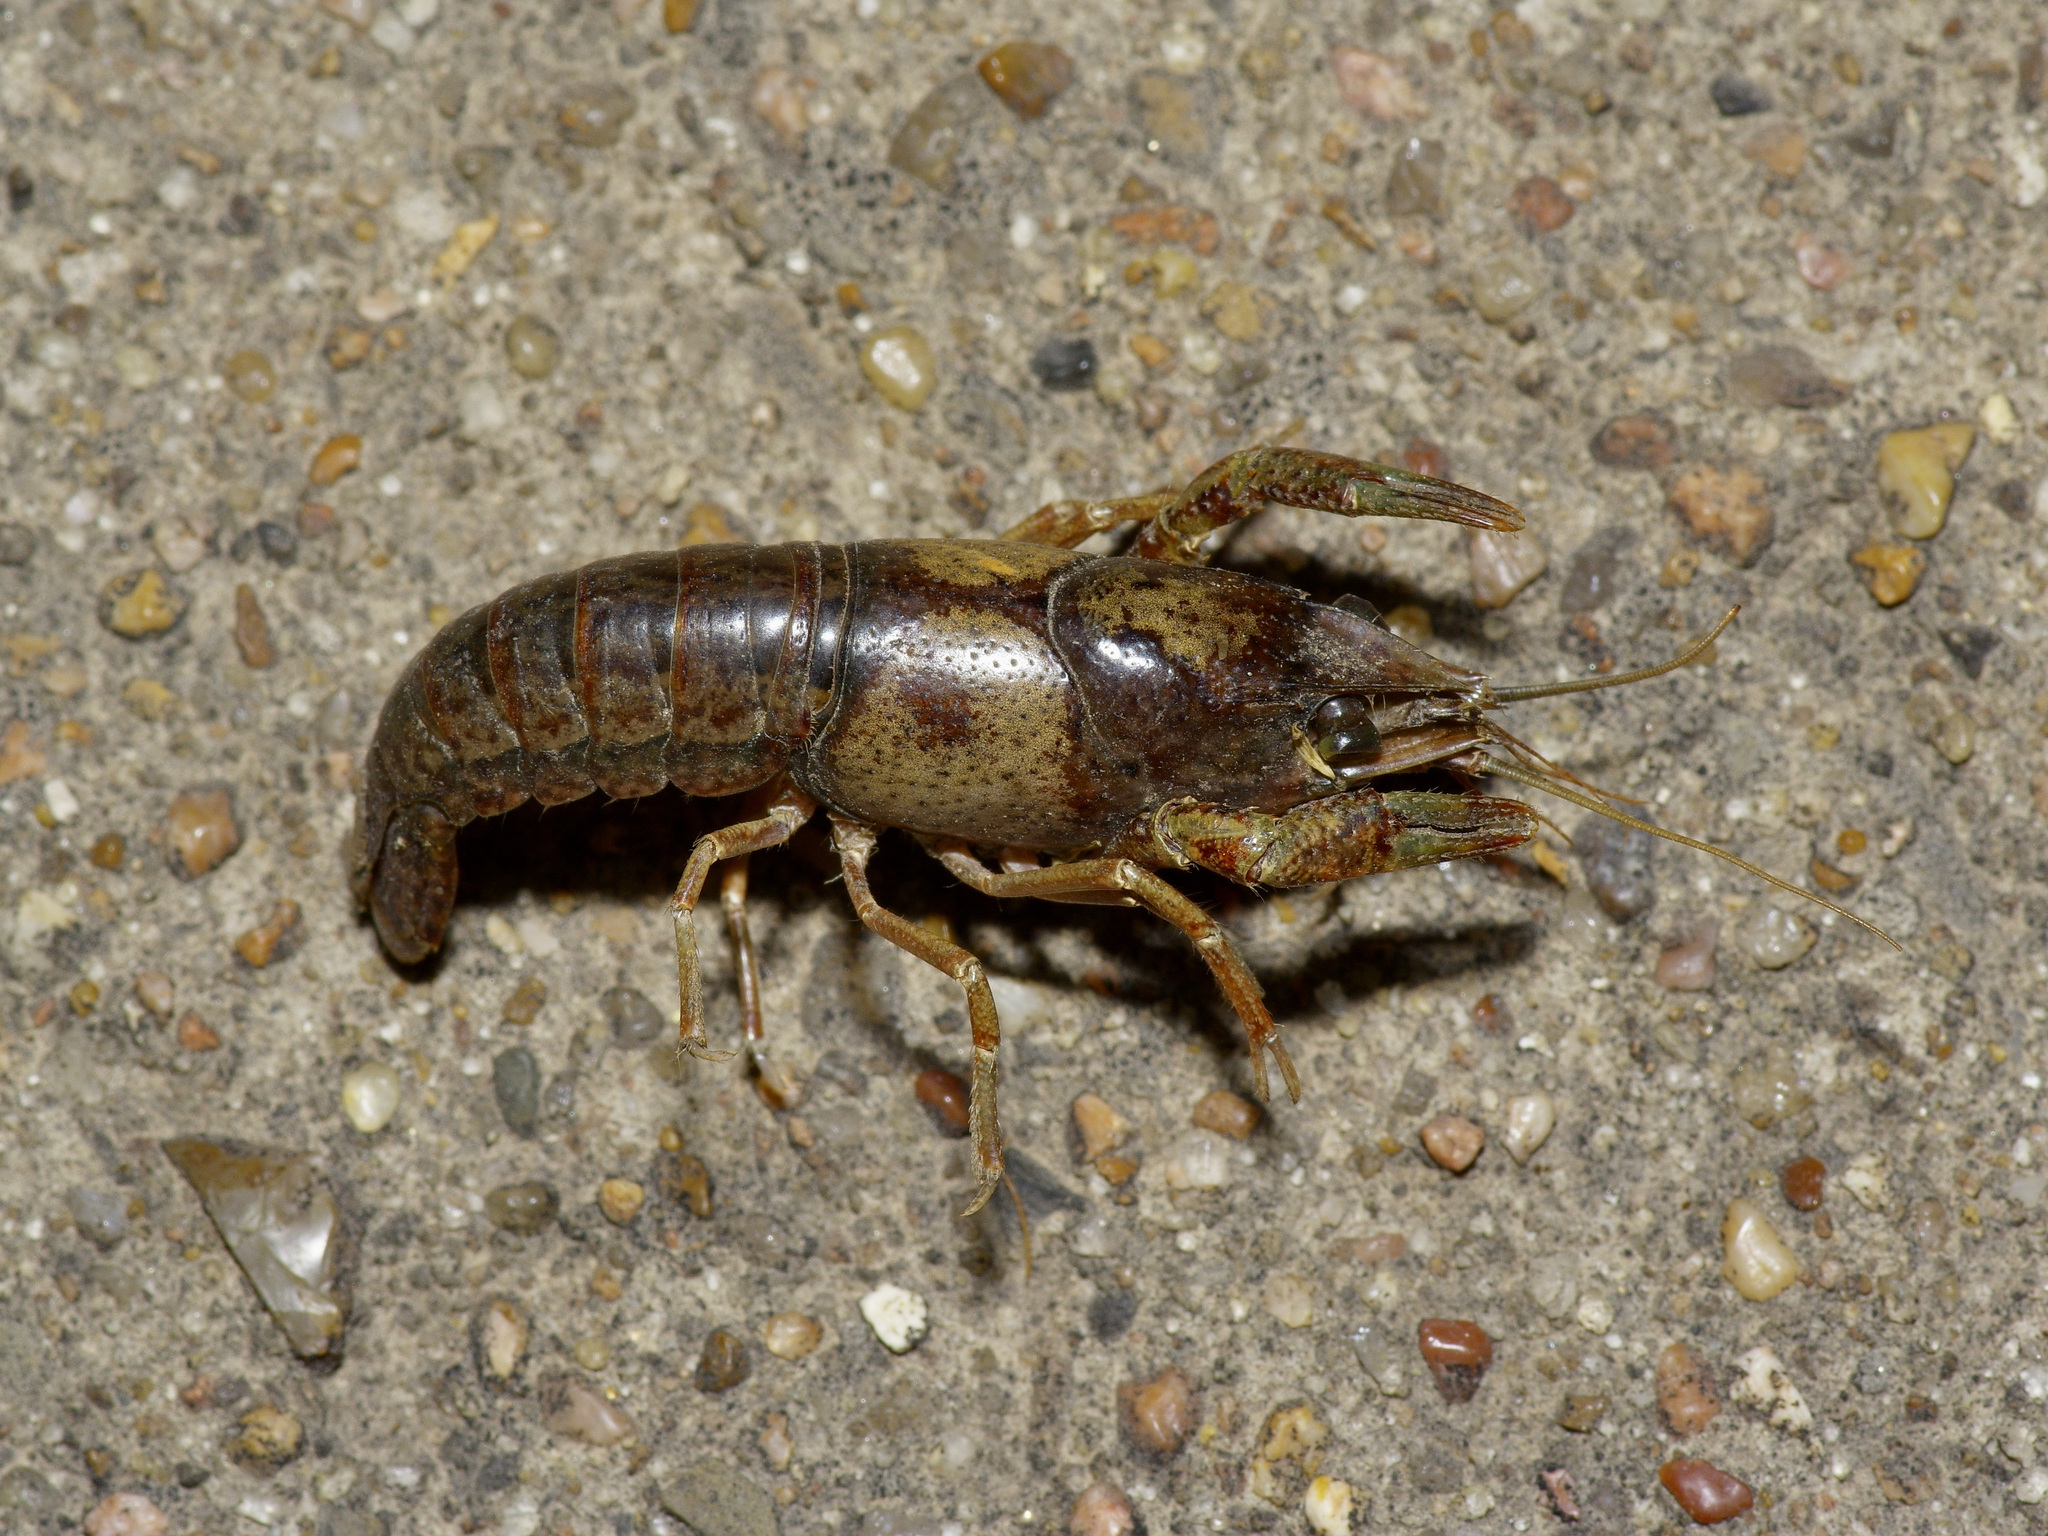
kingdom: Animalia
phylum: Arthropoda
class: Malacostraca
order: Decapoda
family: Cambaridae
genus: Procambarus
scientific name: Procambarus clarkii
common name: Red swamp crayfish
